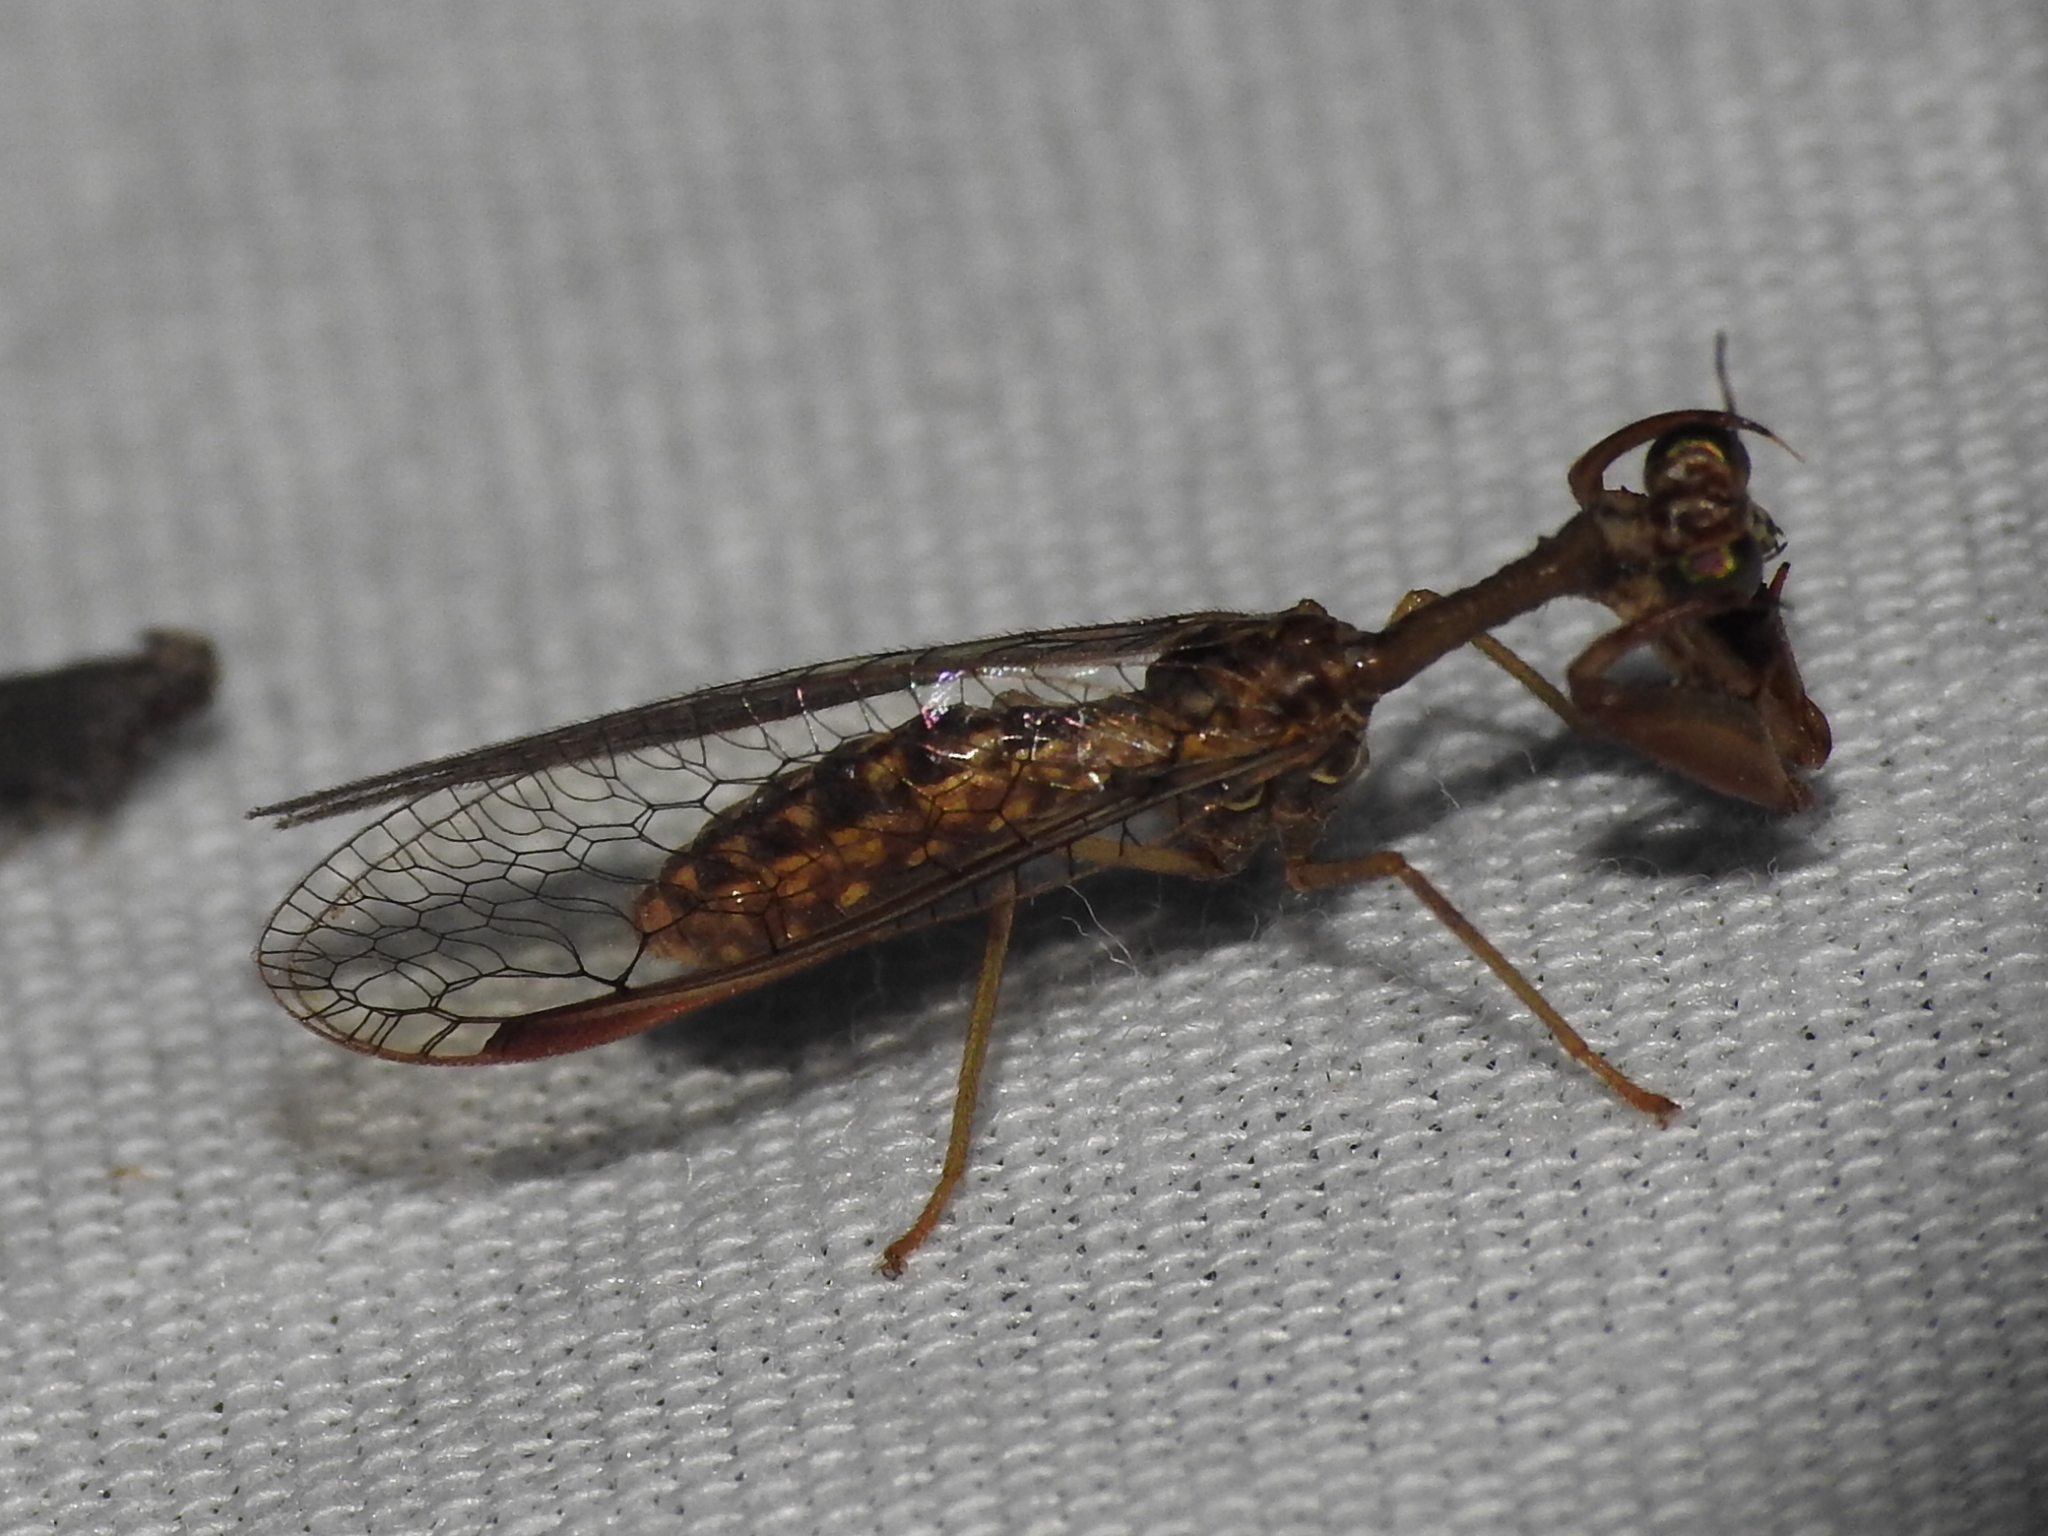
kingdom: Animalia
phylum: Arthropoda
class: Insecta
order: Neuroptera
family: Mantispidae
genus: Dicromantispa
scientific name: Dicromantispa sayi
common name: Say's mantidfly
